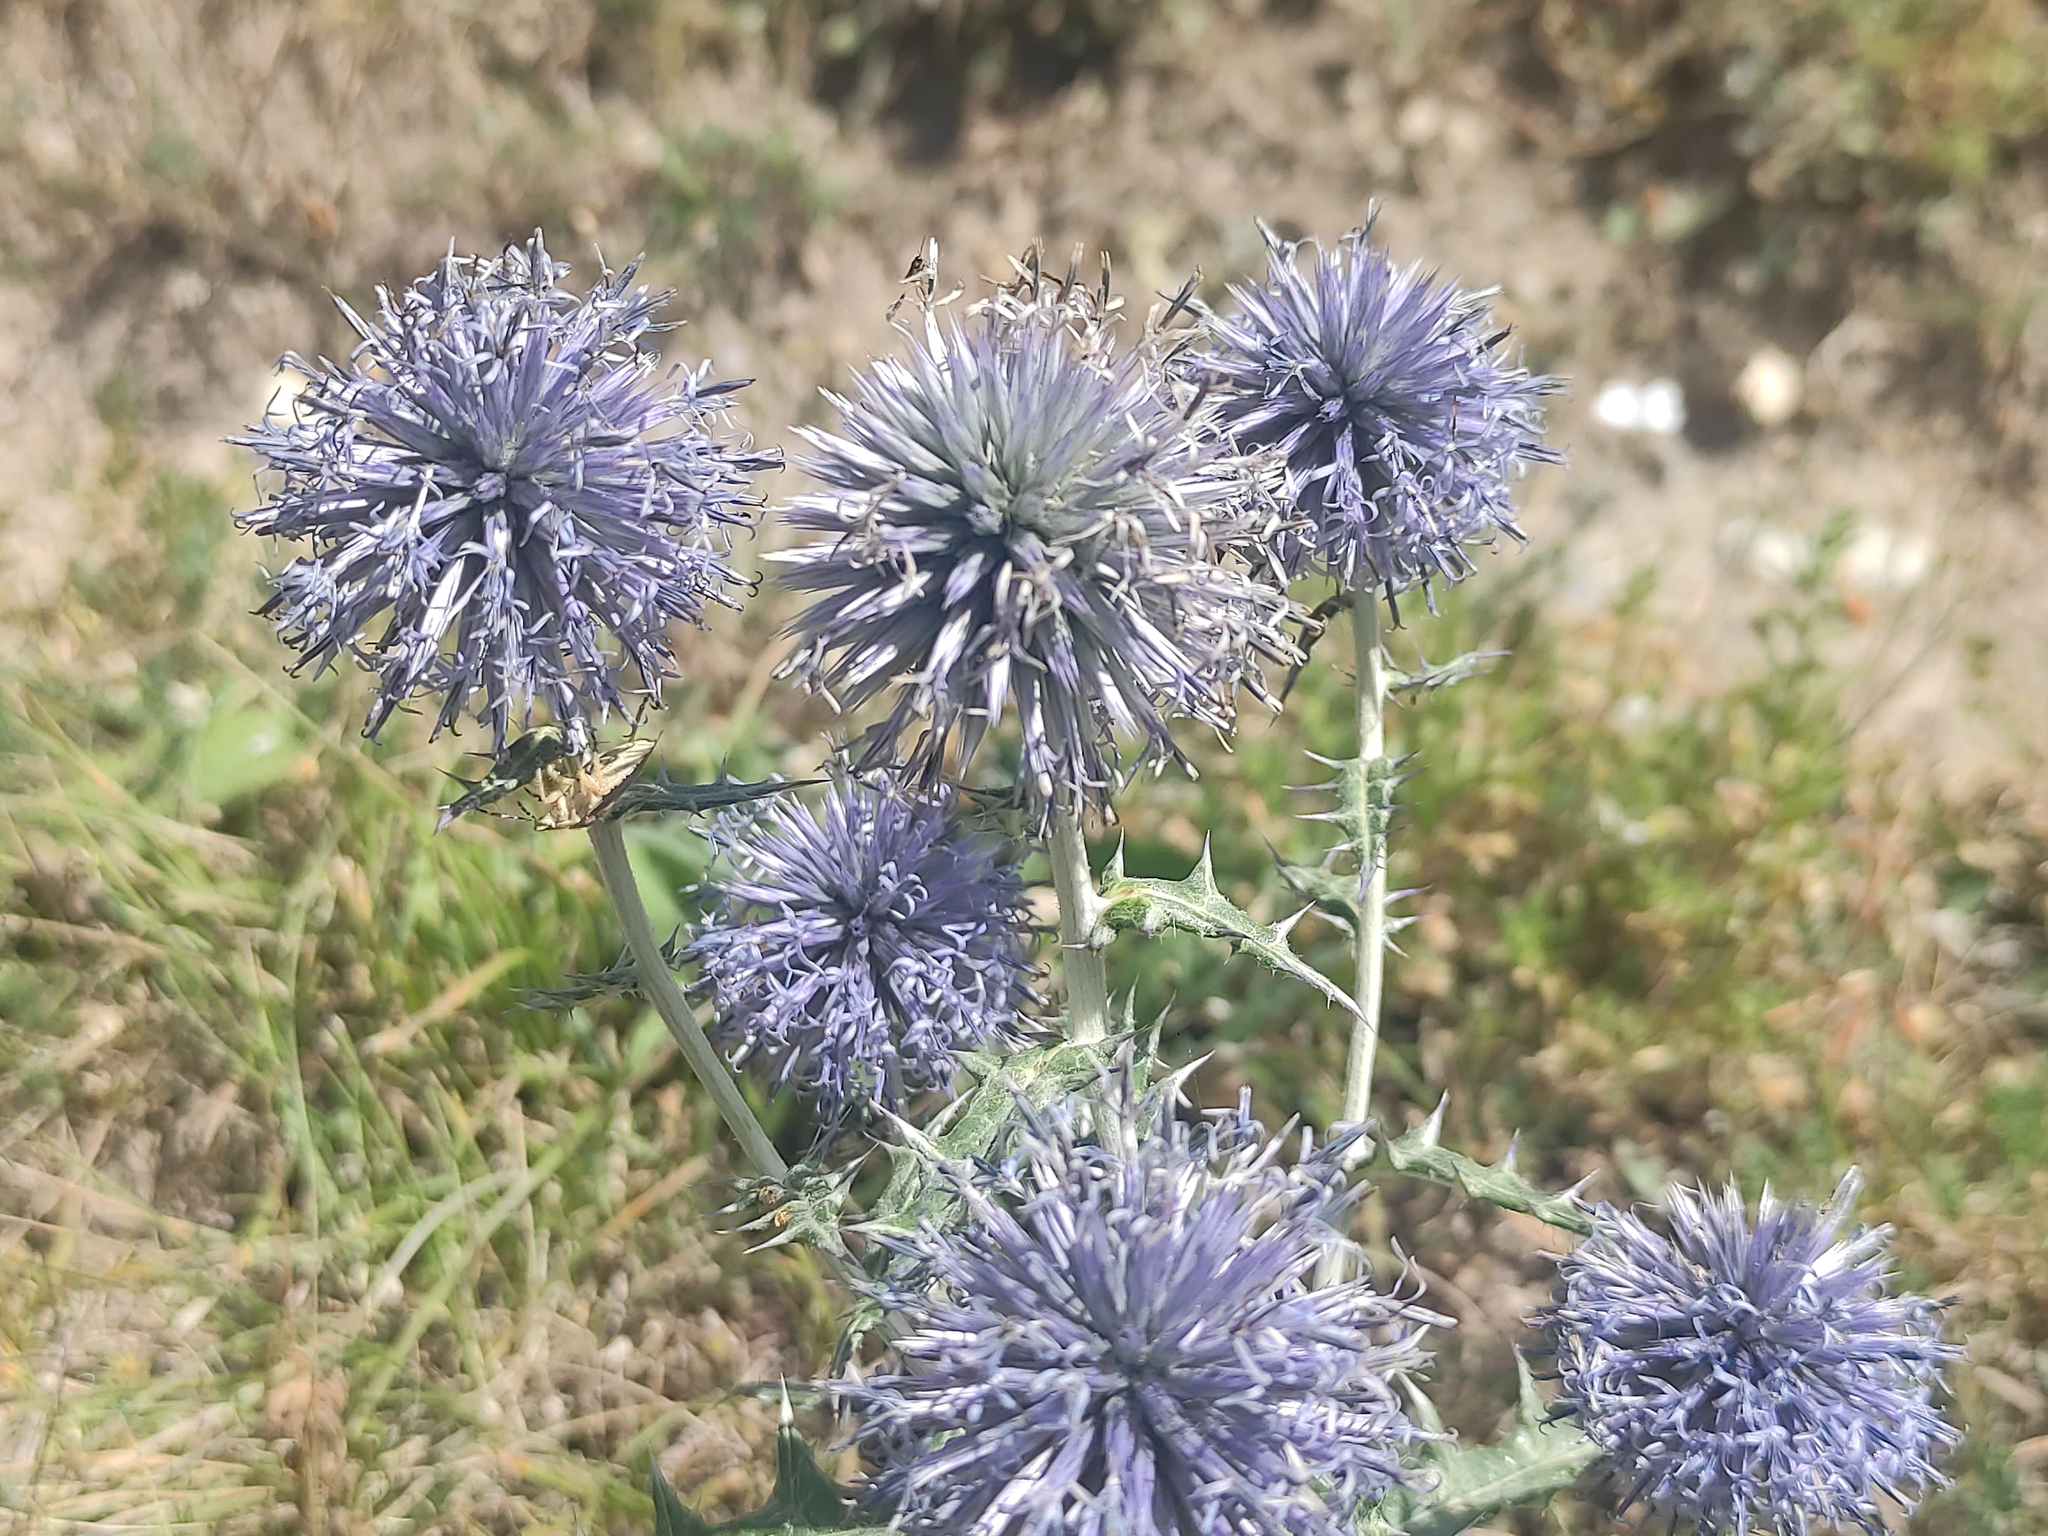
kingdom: Plantae
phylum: Tracheophyta
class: Magnoliopsida
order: Asterales
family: Asteraceae
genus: Echinops
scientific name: Echinops ritro
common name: Globe thistle
